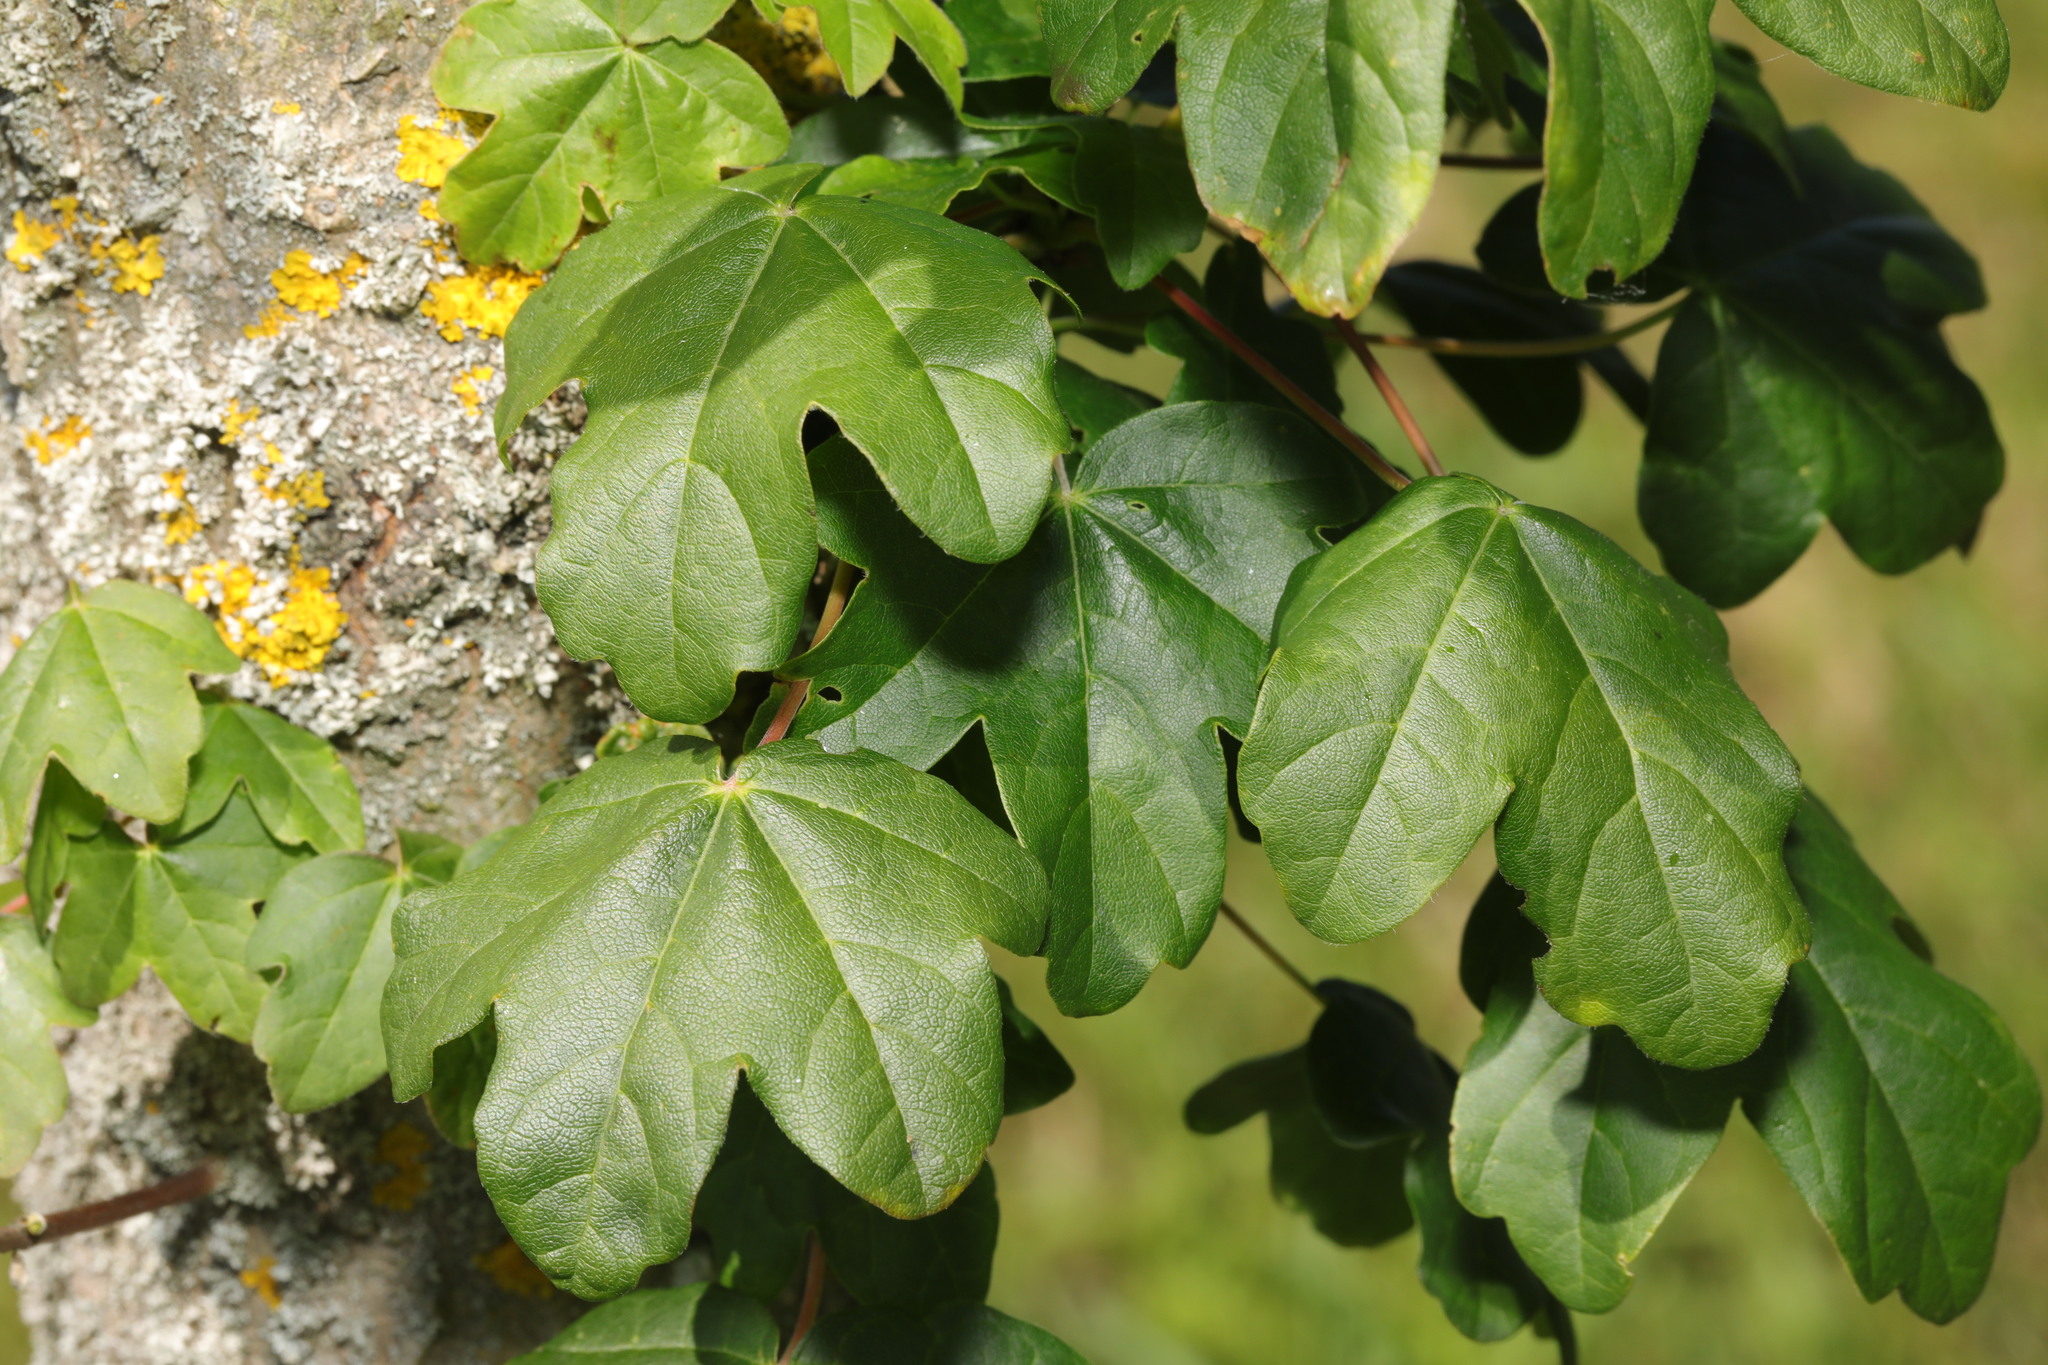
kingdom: Plantae
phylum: Tracheophyta
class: Magnoliopsida
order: Sapindales
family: Sapindaceae
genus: Acer
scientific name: Acer campestre
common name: Field maple
